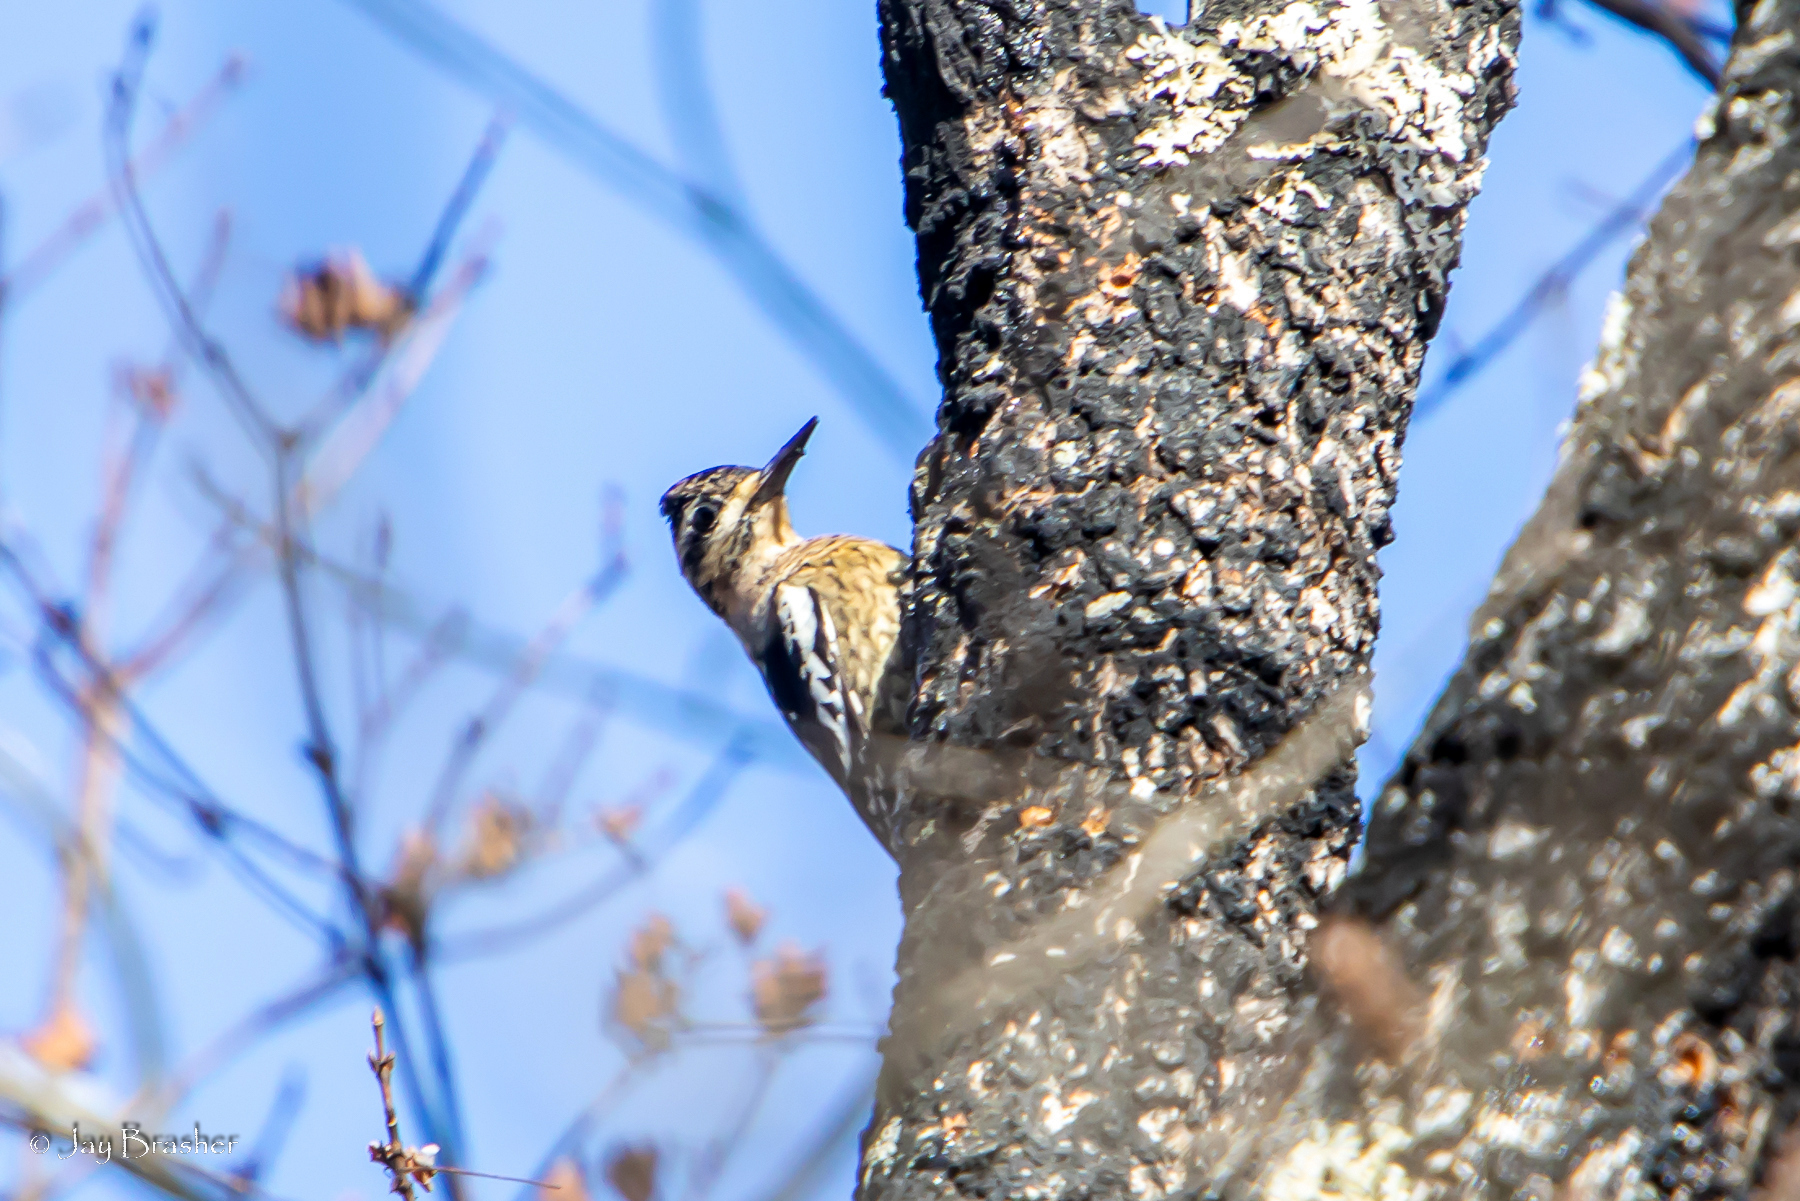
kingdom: Animalia
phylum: Chordata
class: Aves
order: Piciformes
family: Picidae
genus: Sphyrapicus
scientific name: Sphyrapicus varius
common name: Yellow-bellied sapsucker
